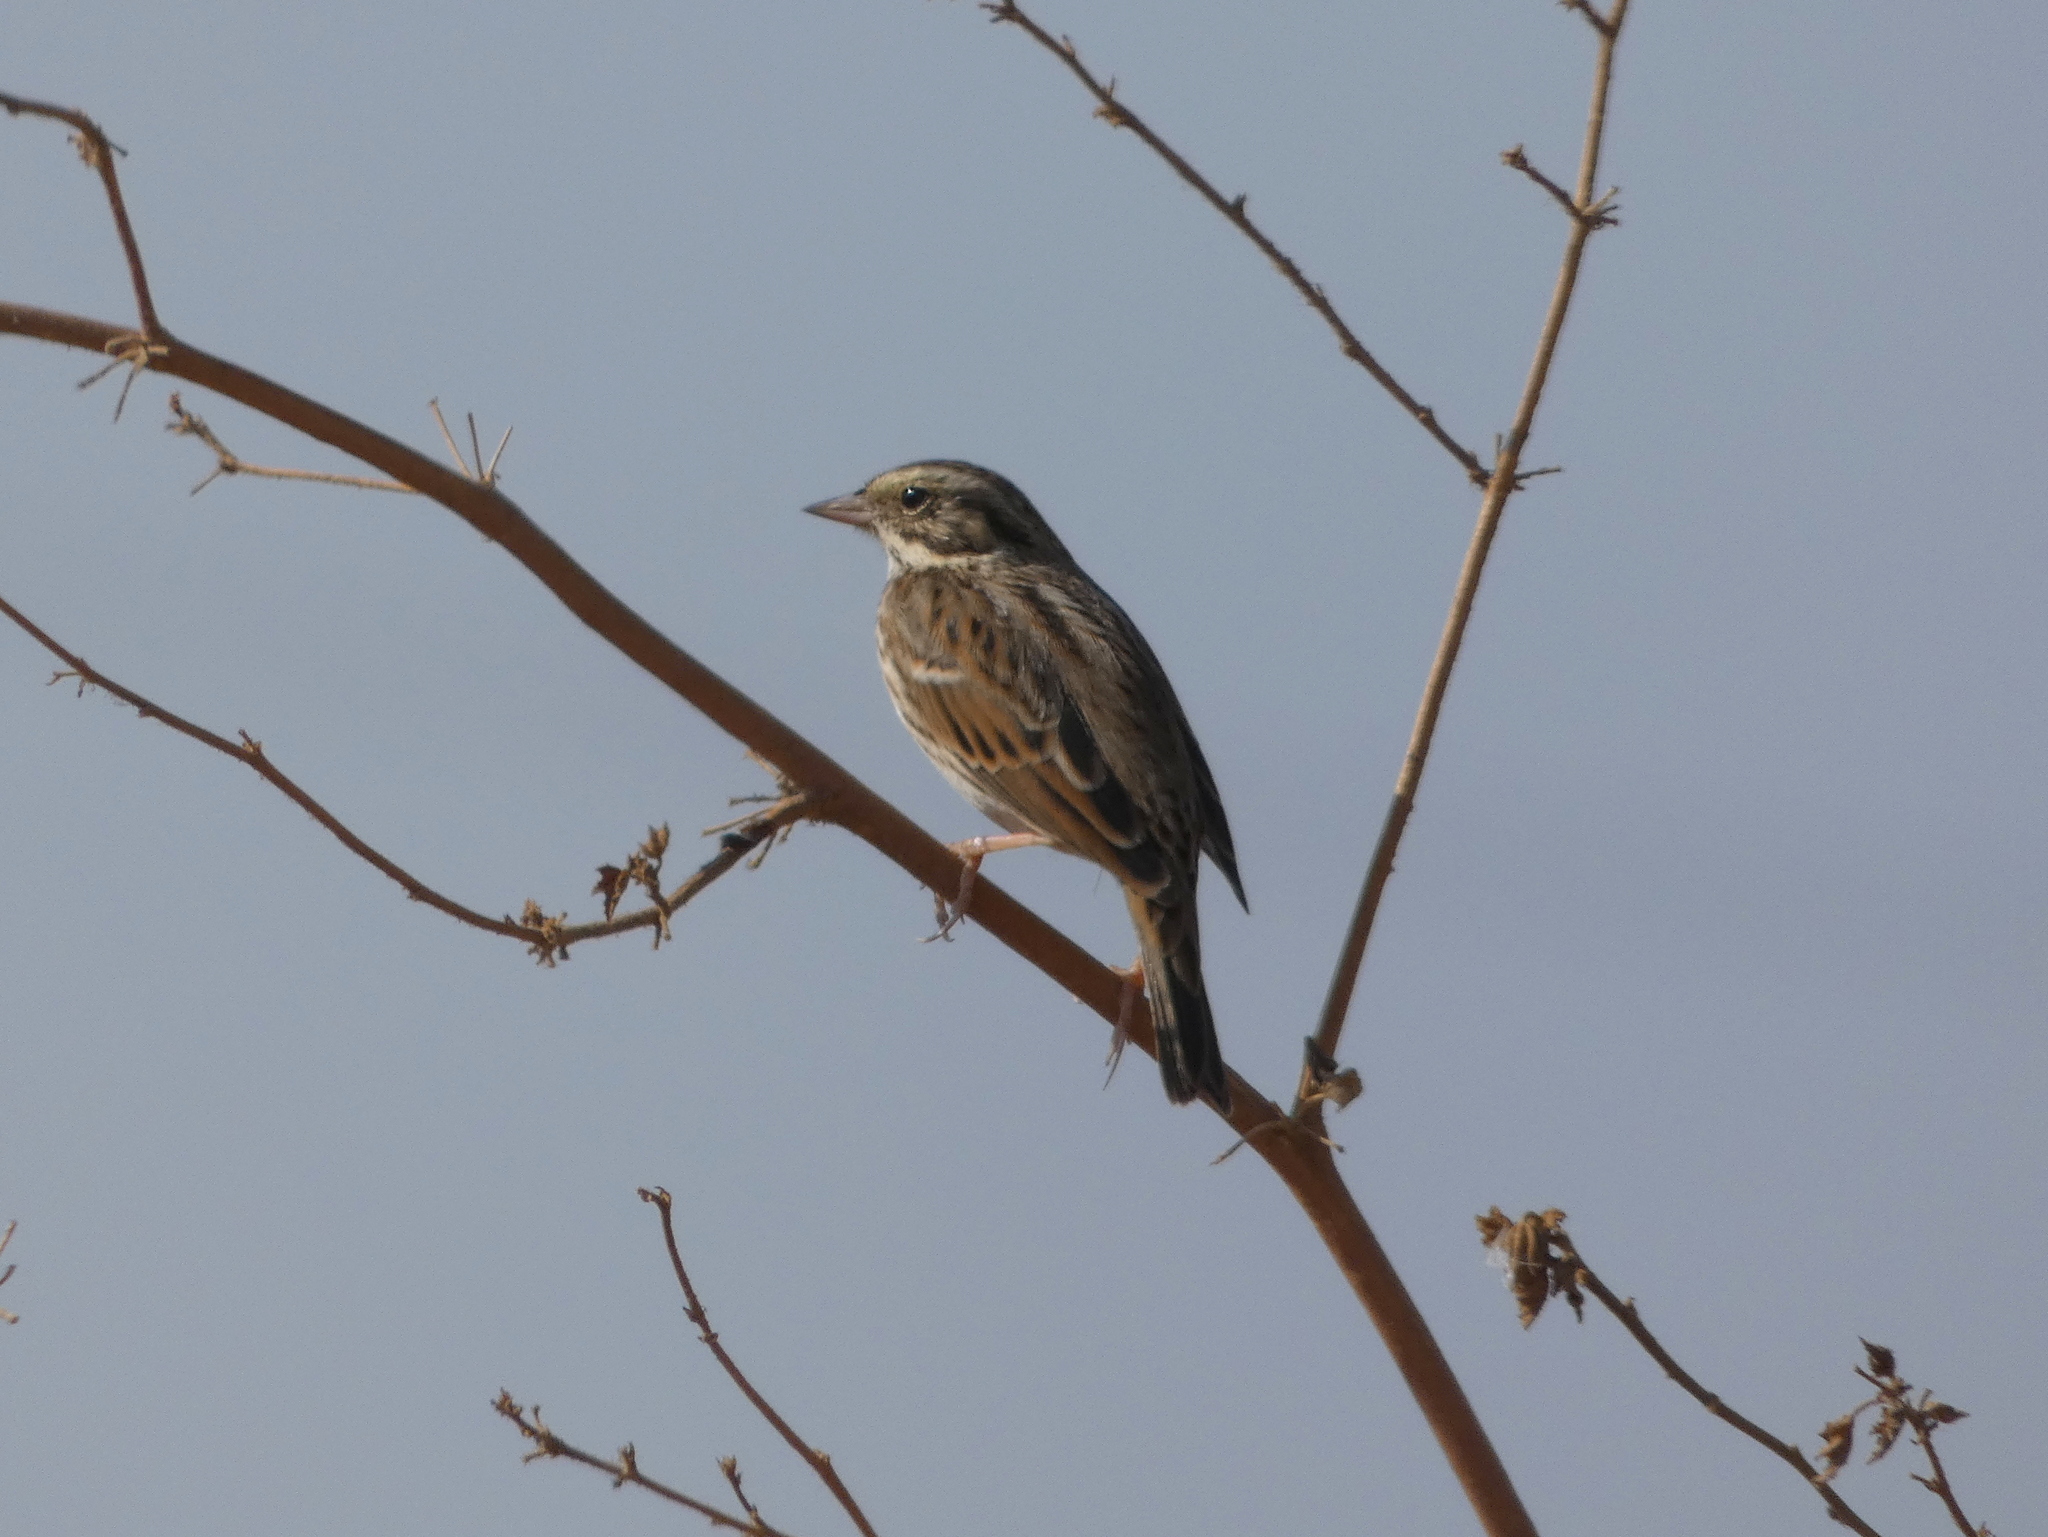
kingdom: Animalia
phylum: Chordata
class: Aves
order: Passeriformes
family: Passerellidae
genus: Passerculus
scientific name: Passerculus sandwichensis
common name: Savannah sparrow
